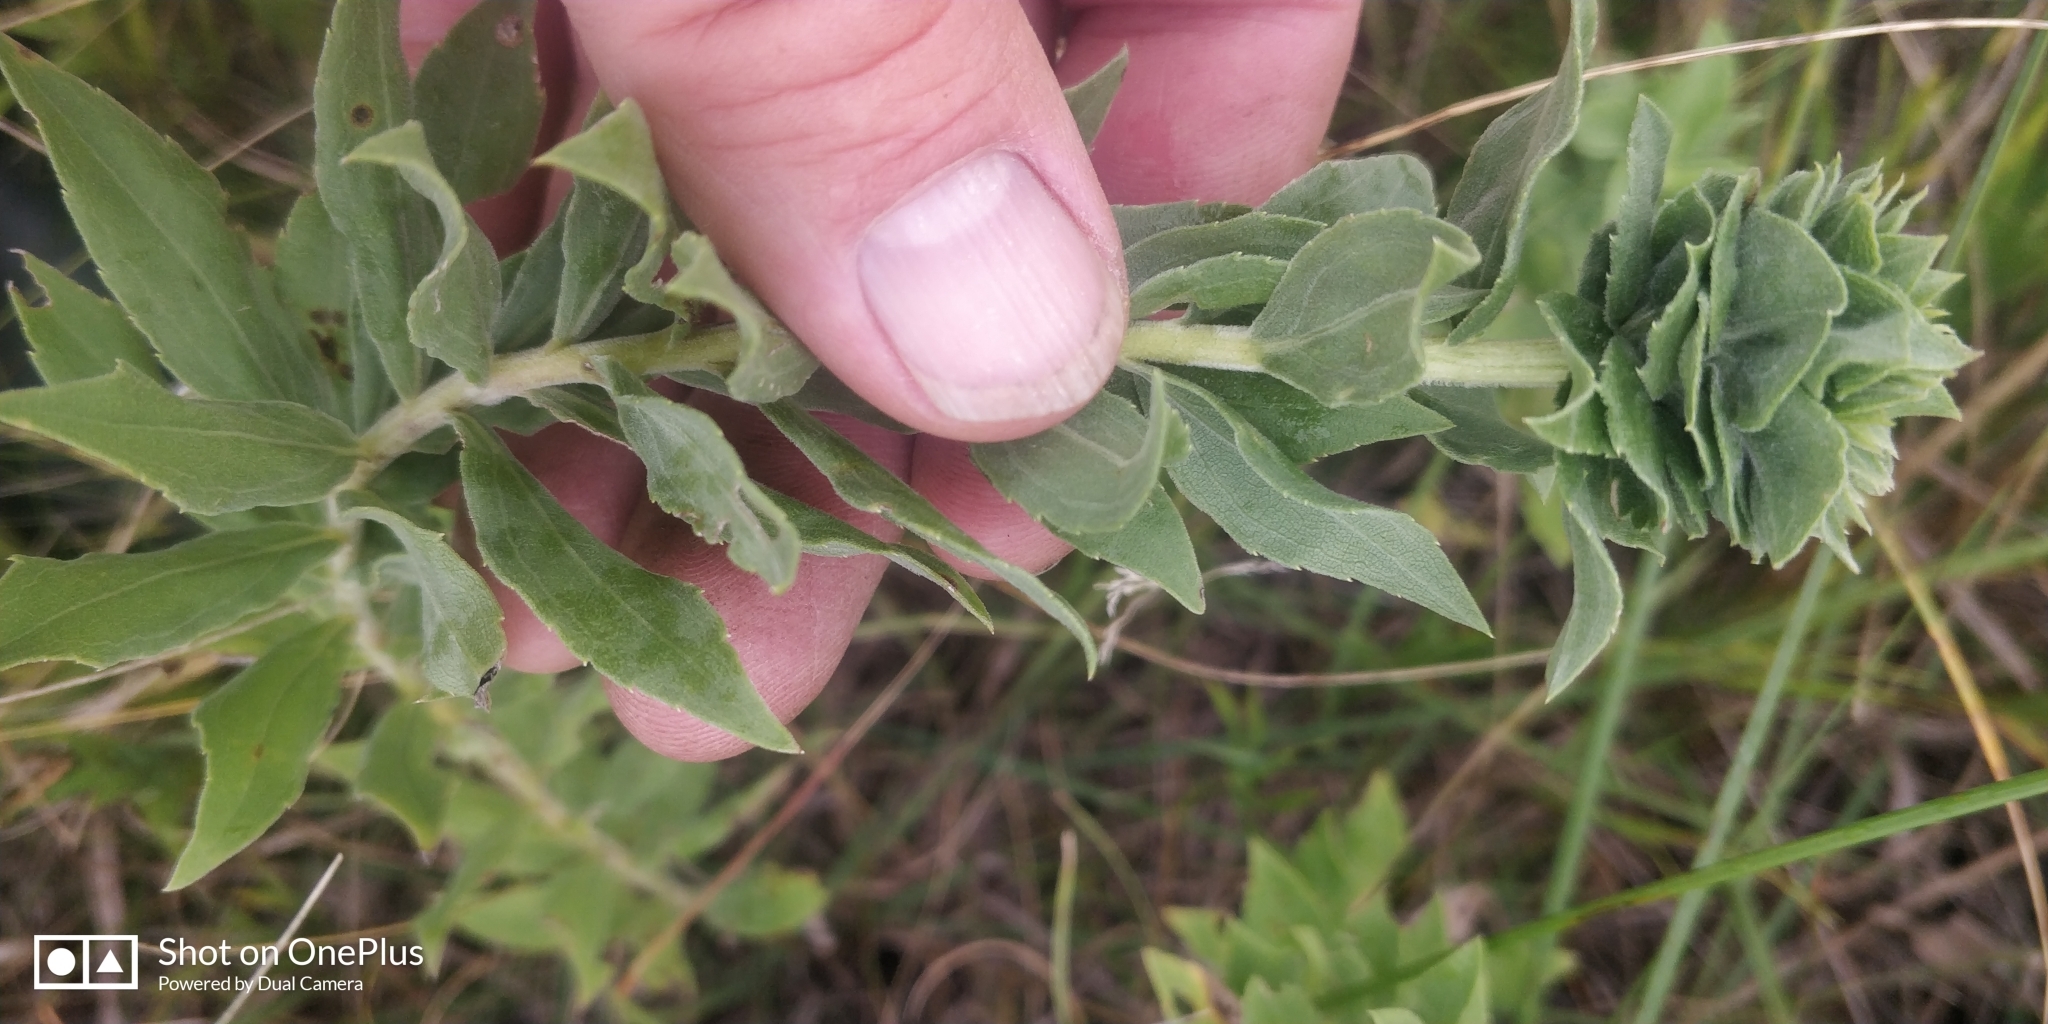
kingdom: Animalia
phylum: Arthropoda
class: Insecta
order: Diptera
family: Cecidomyiidae
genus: Rhopalomyia
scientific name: Rhopalomyia solidaginis
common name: Goldenrod bunch gall midge
